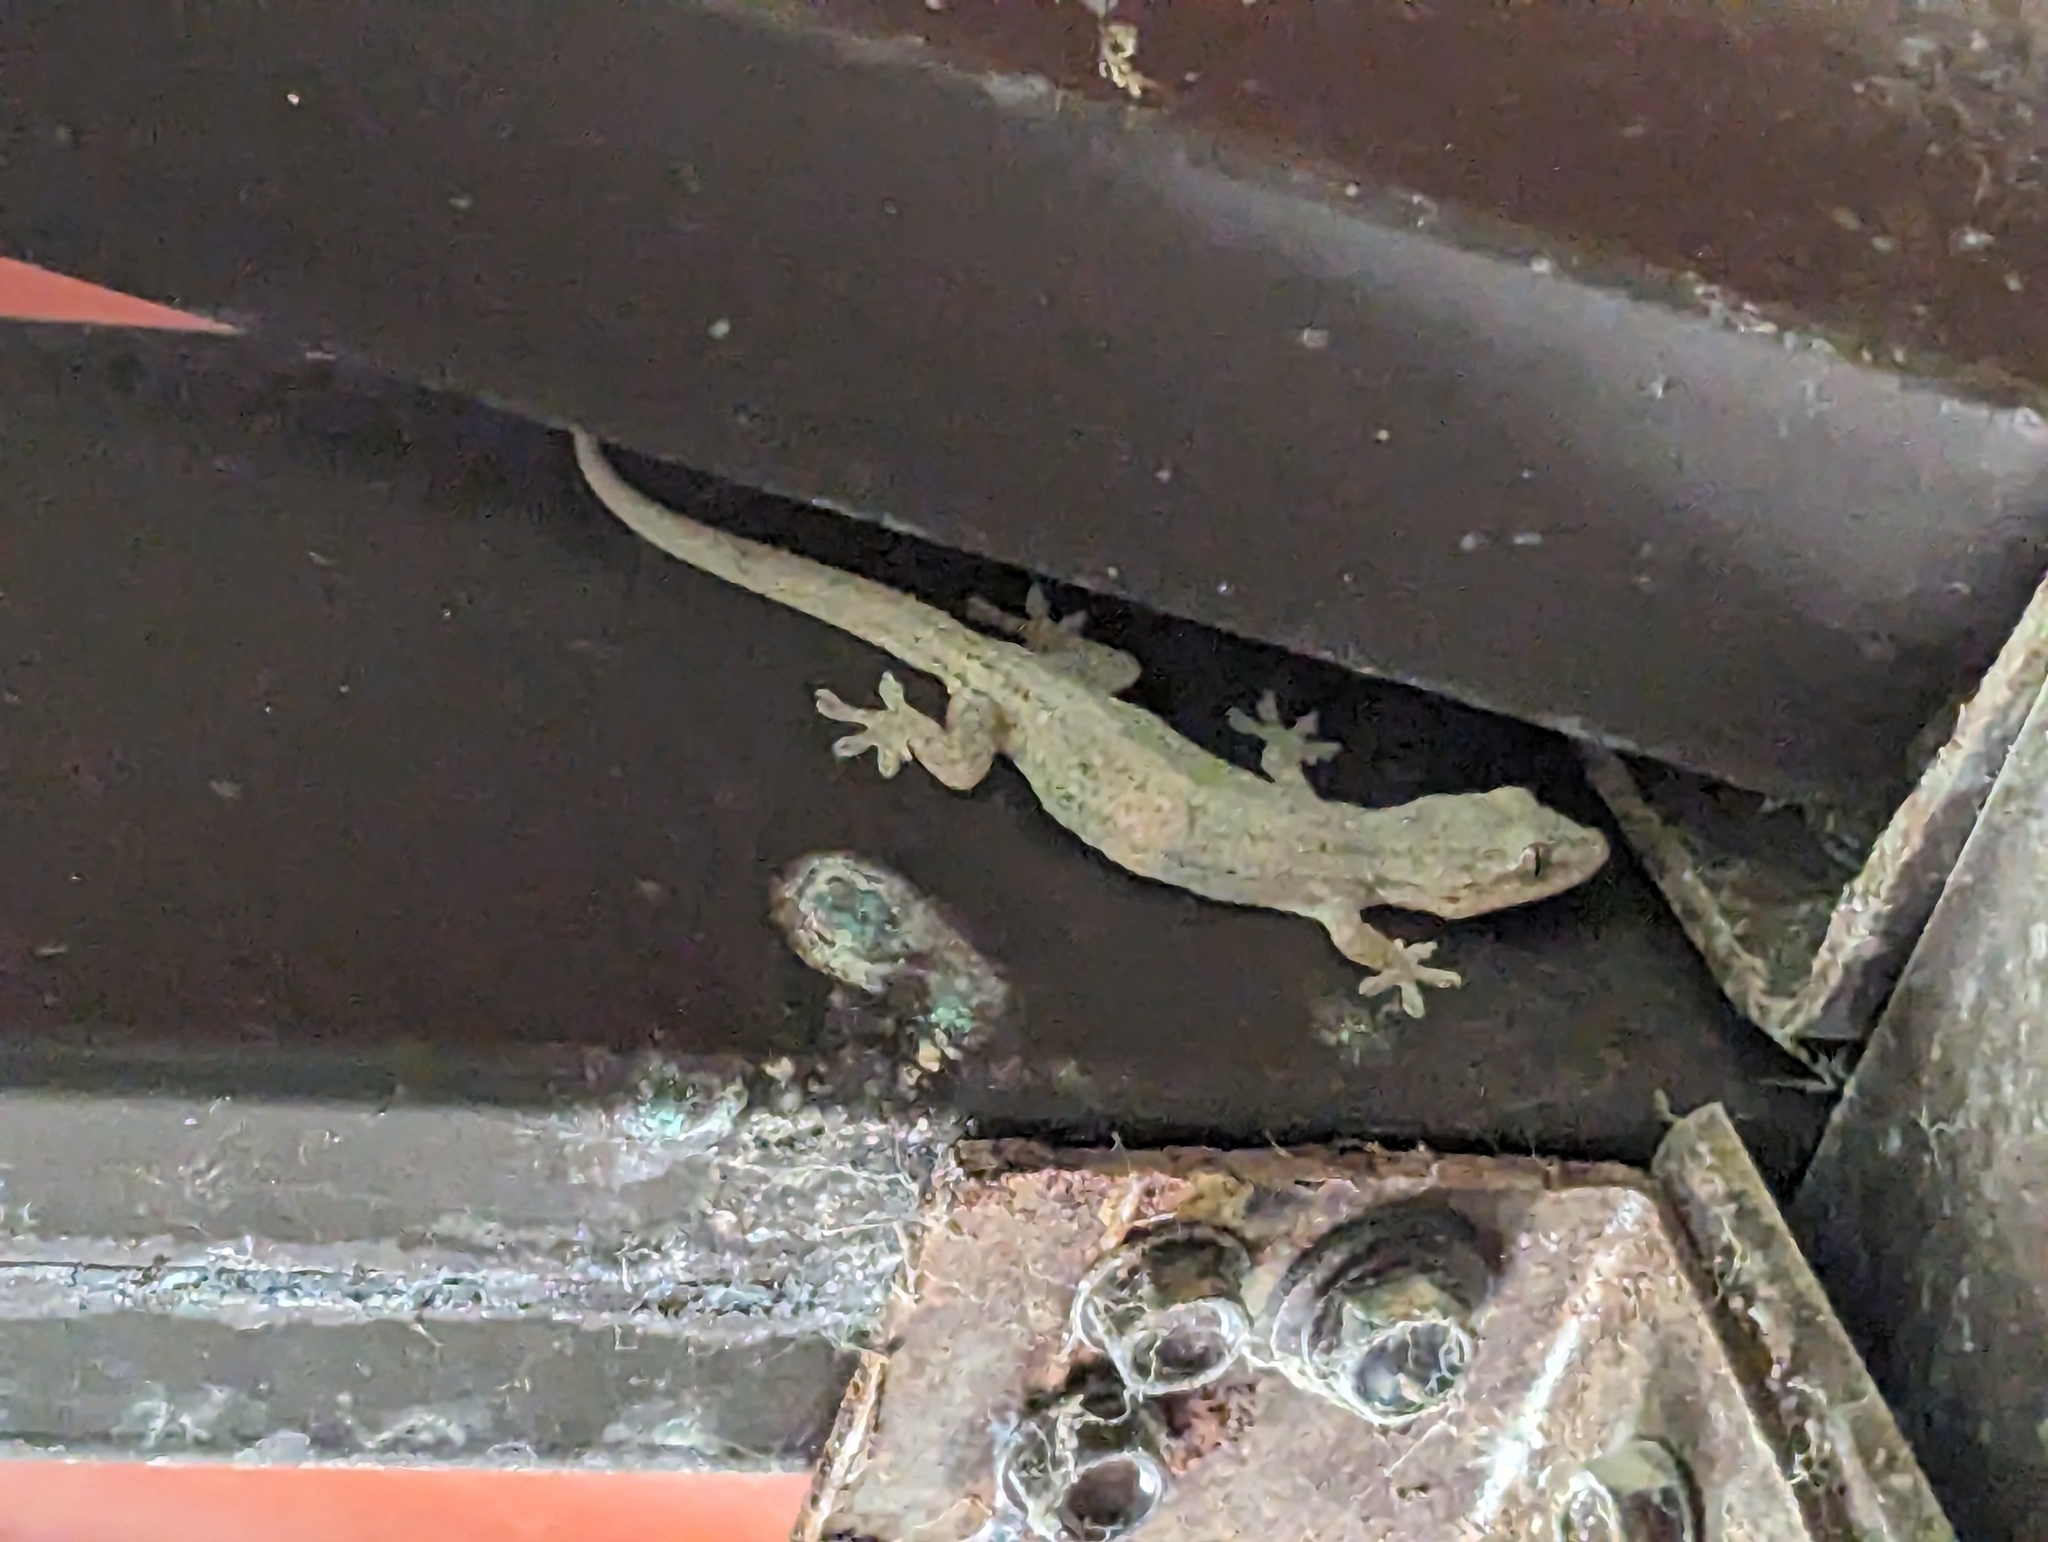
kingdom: Animalia
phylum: Chordata
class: Squamata
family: Gekkonidae
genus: Hemidactylus
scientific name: Hemidactylus frenatus
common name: Common house gecko
